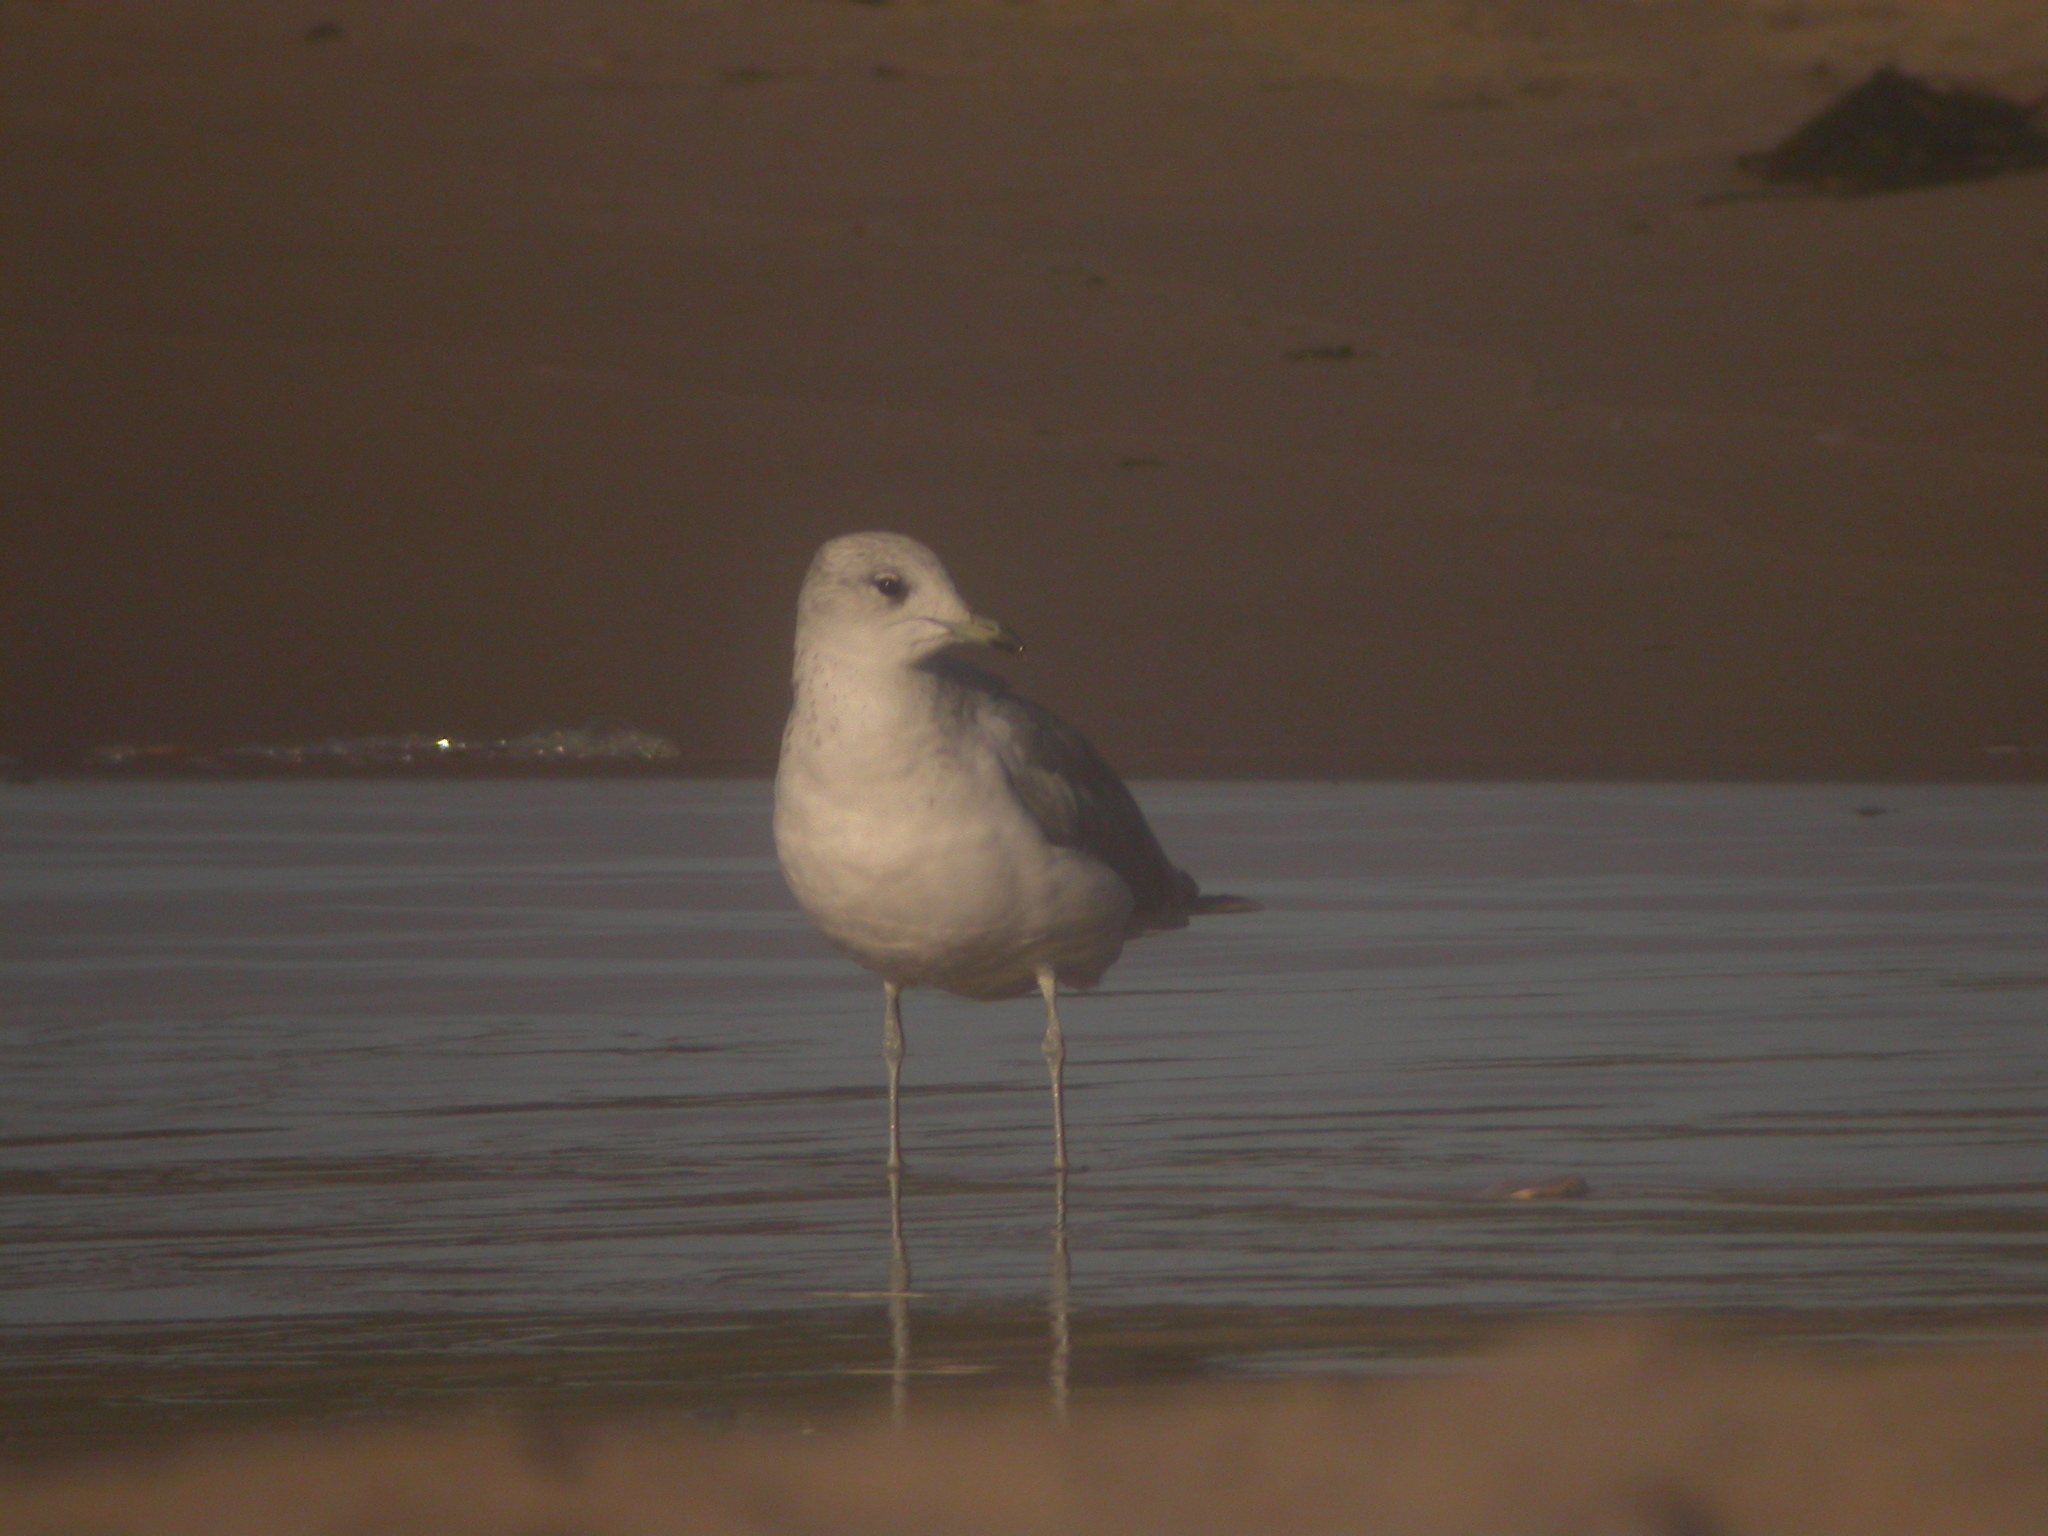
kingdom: Animalia
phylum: Chordata
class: Aves
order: Charadriiformes
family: Laridae
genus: Larus
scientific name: Larus canus
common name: Mew gull
